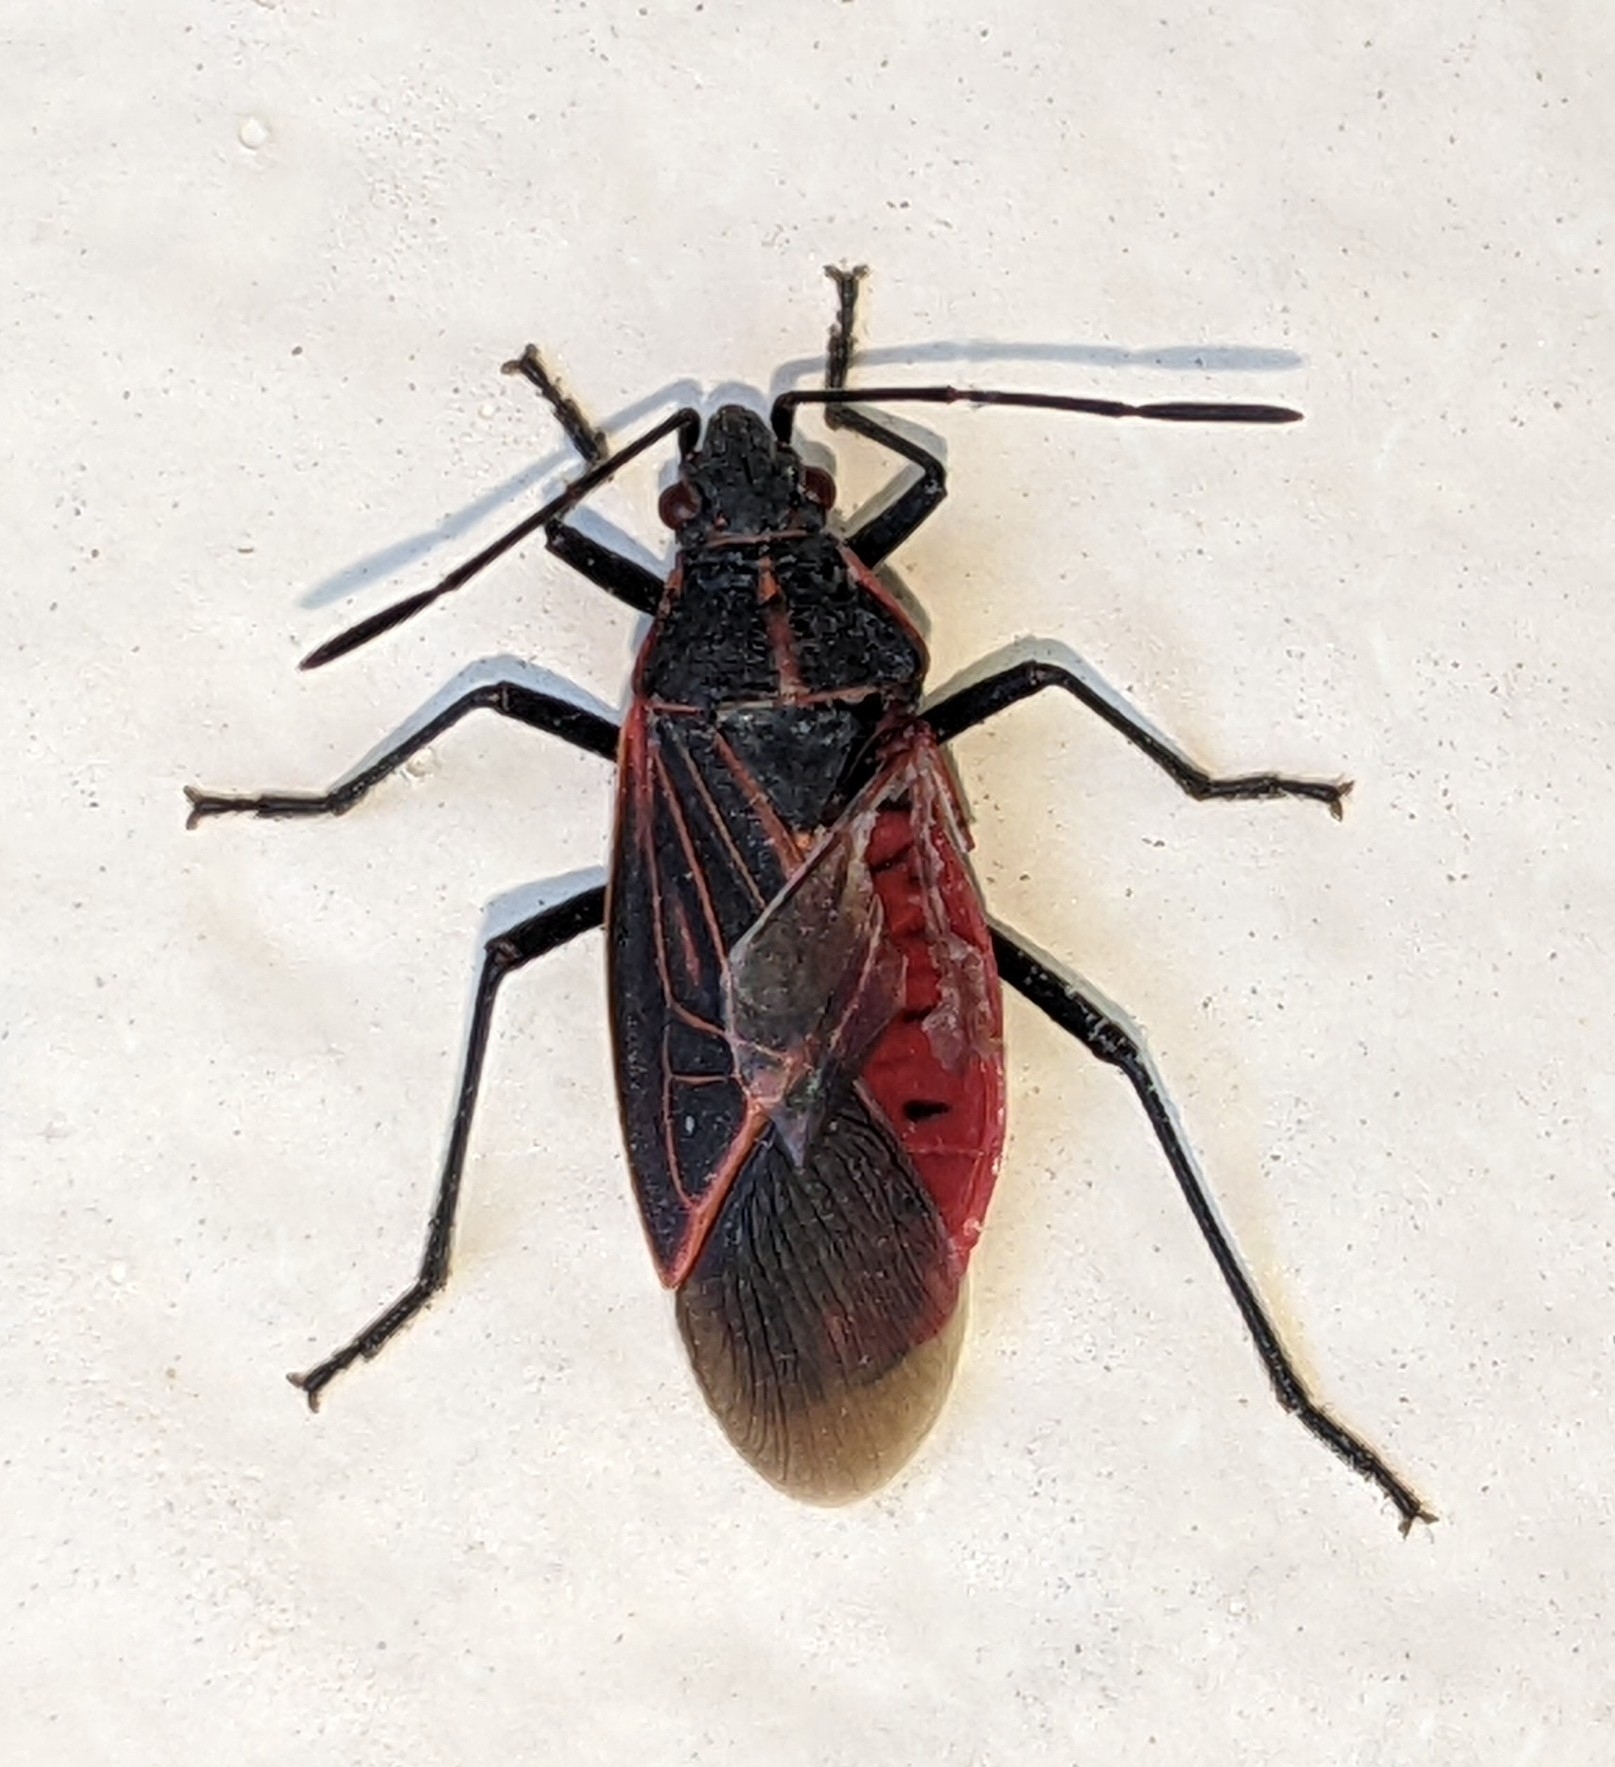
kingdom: Animalia
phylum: Arthropoda
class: Insecta
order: Hemiptera
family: Rhopalidae
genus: Boisea
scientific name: Boisea rubrolineata
